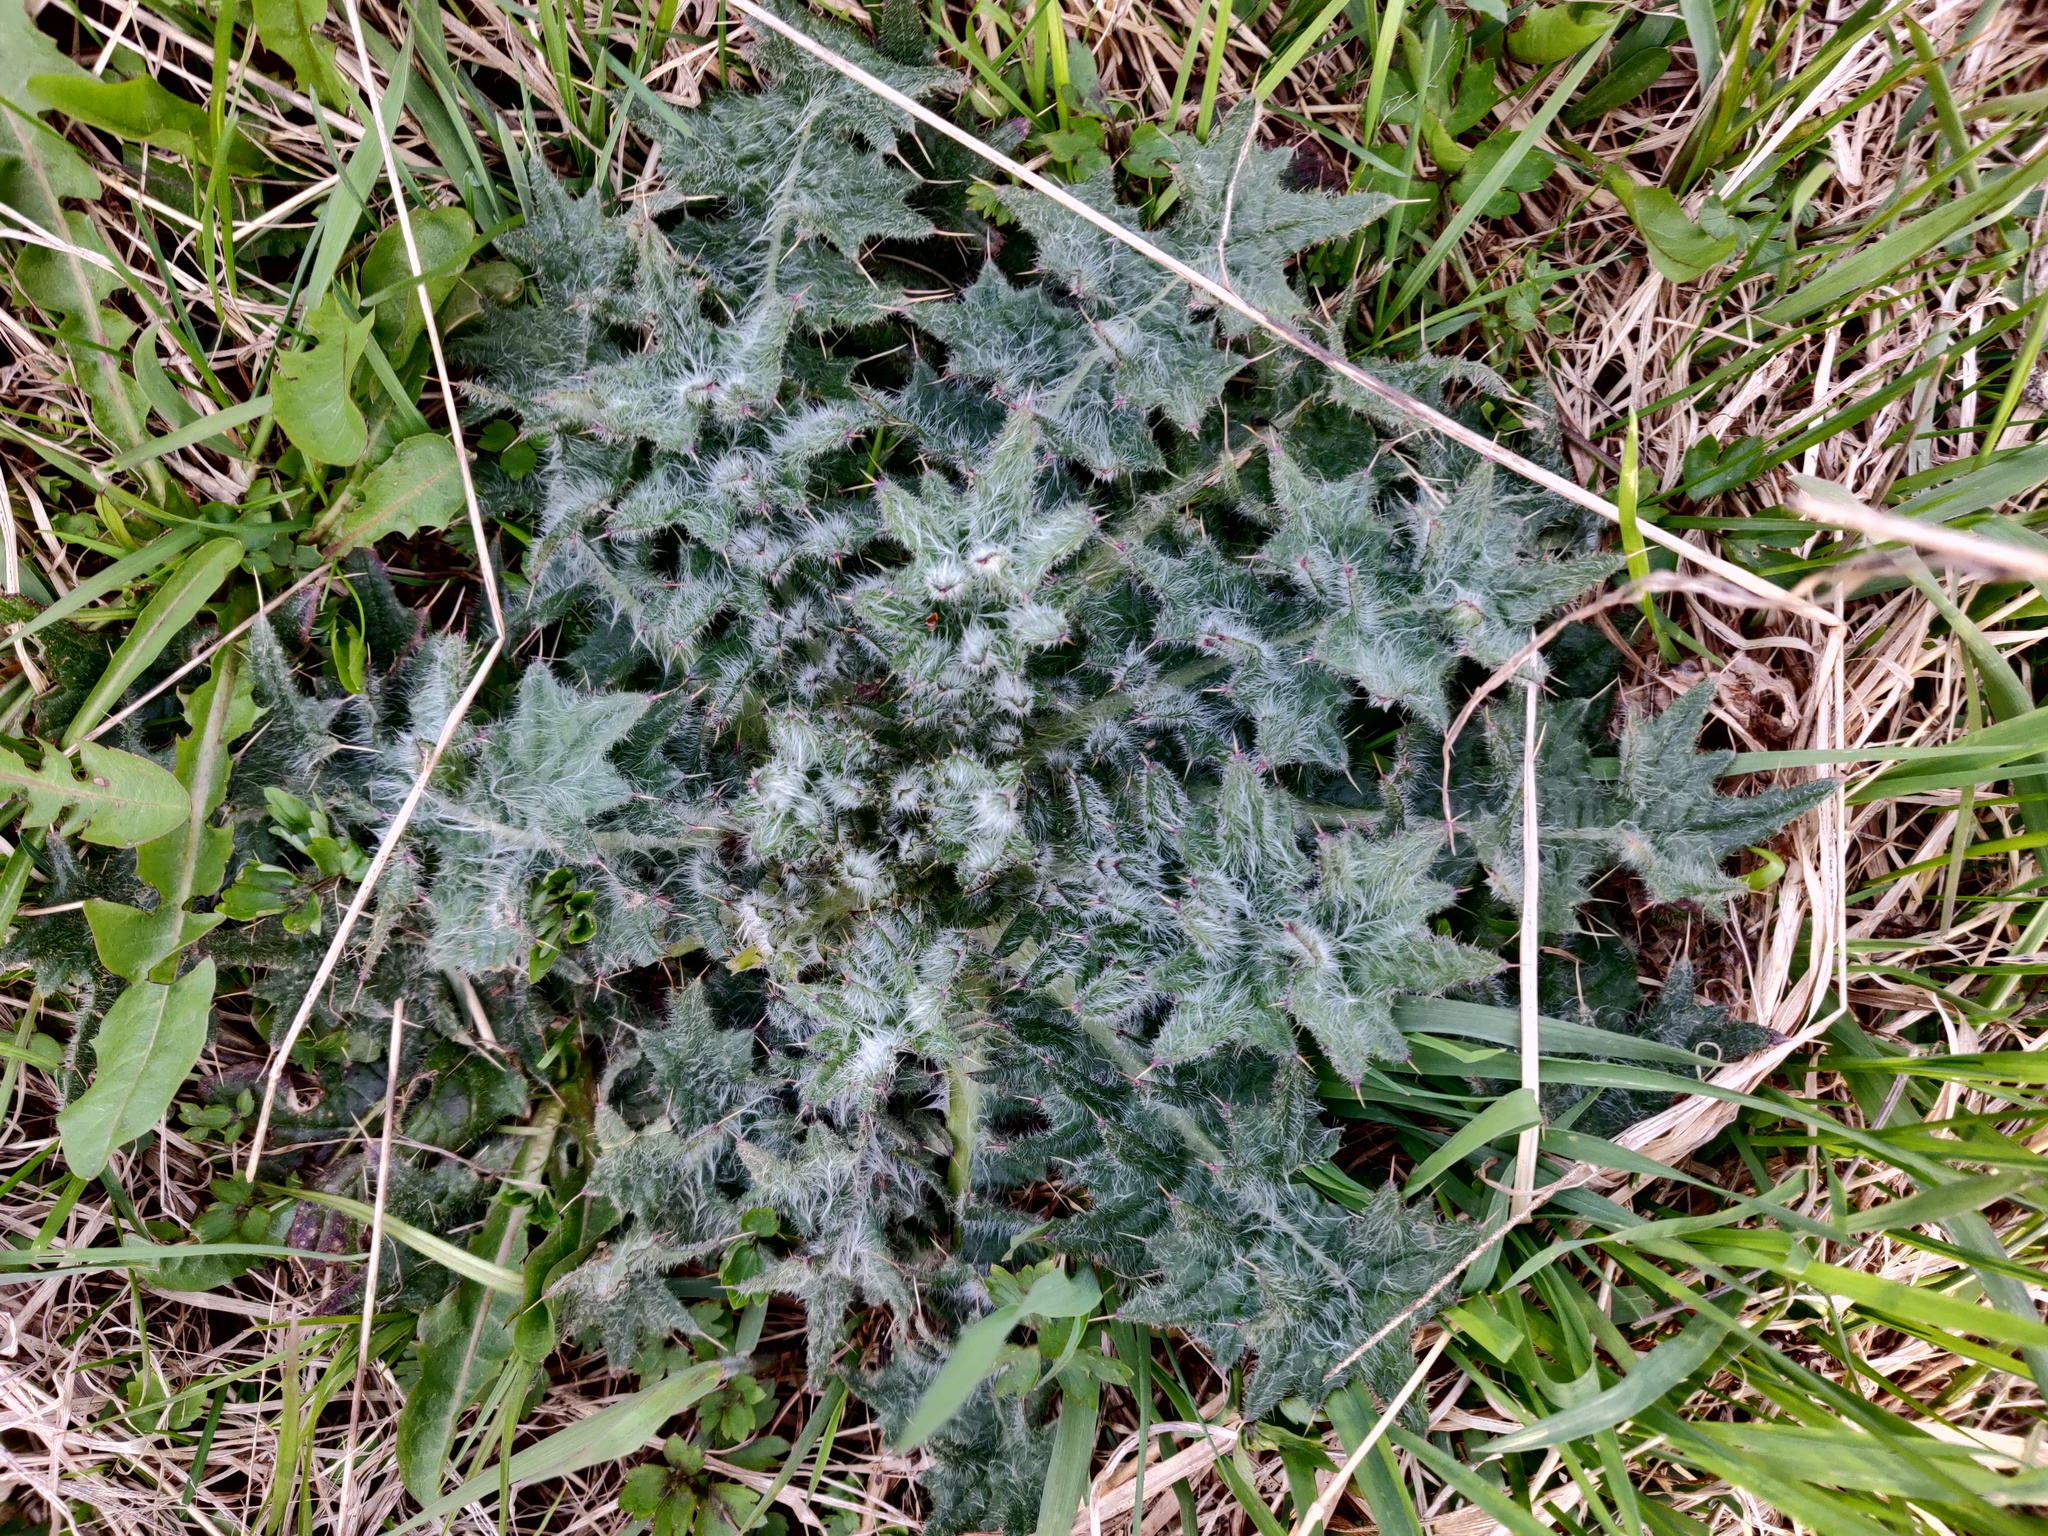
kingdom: Plantae
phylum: Tracheophyta
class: Magnoliopsida
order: Asterales
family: Asteraceae
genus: Cirsium
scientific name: Cirsium vulgare
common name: Bull thistle
